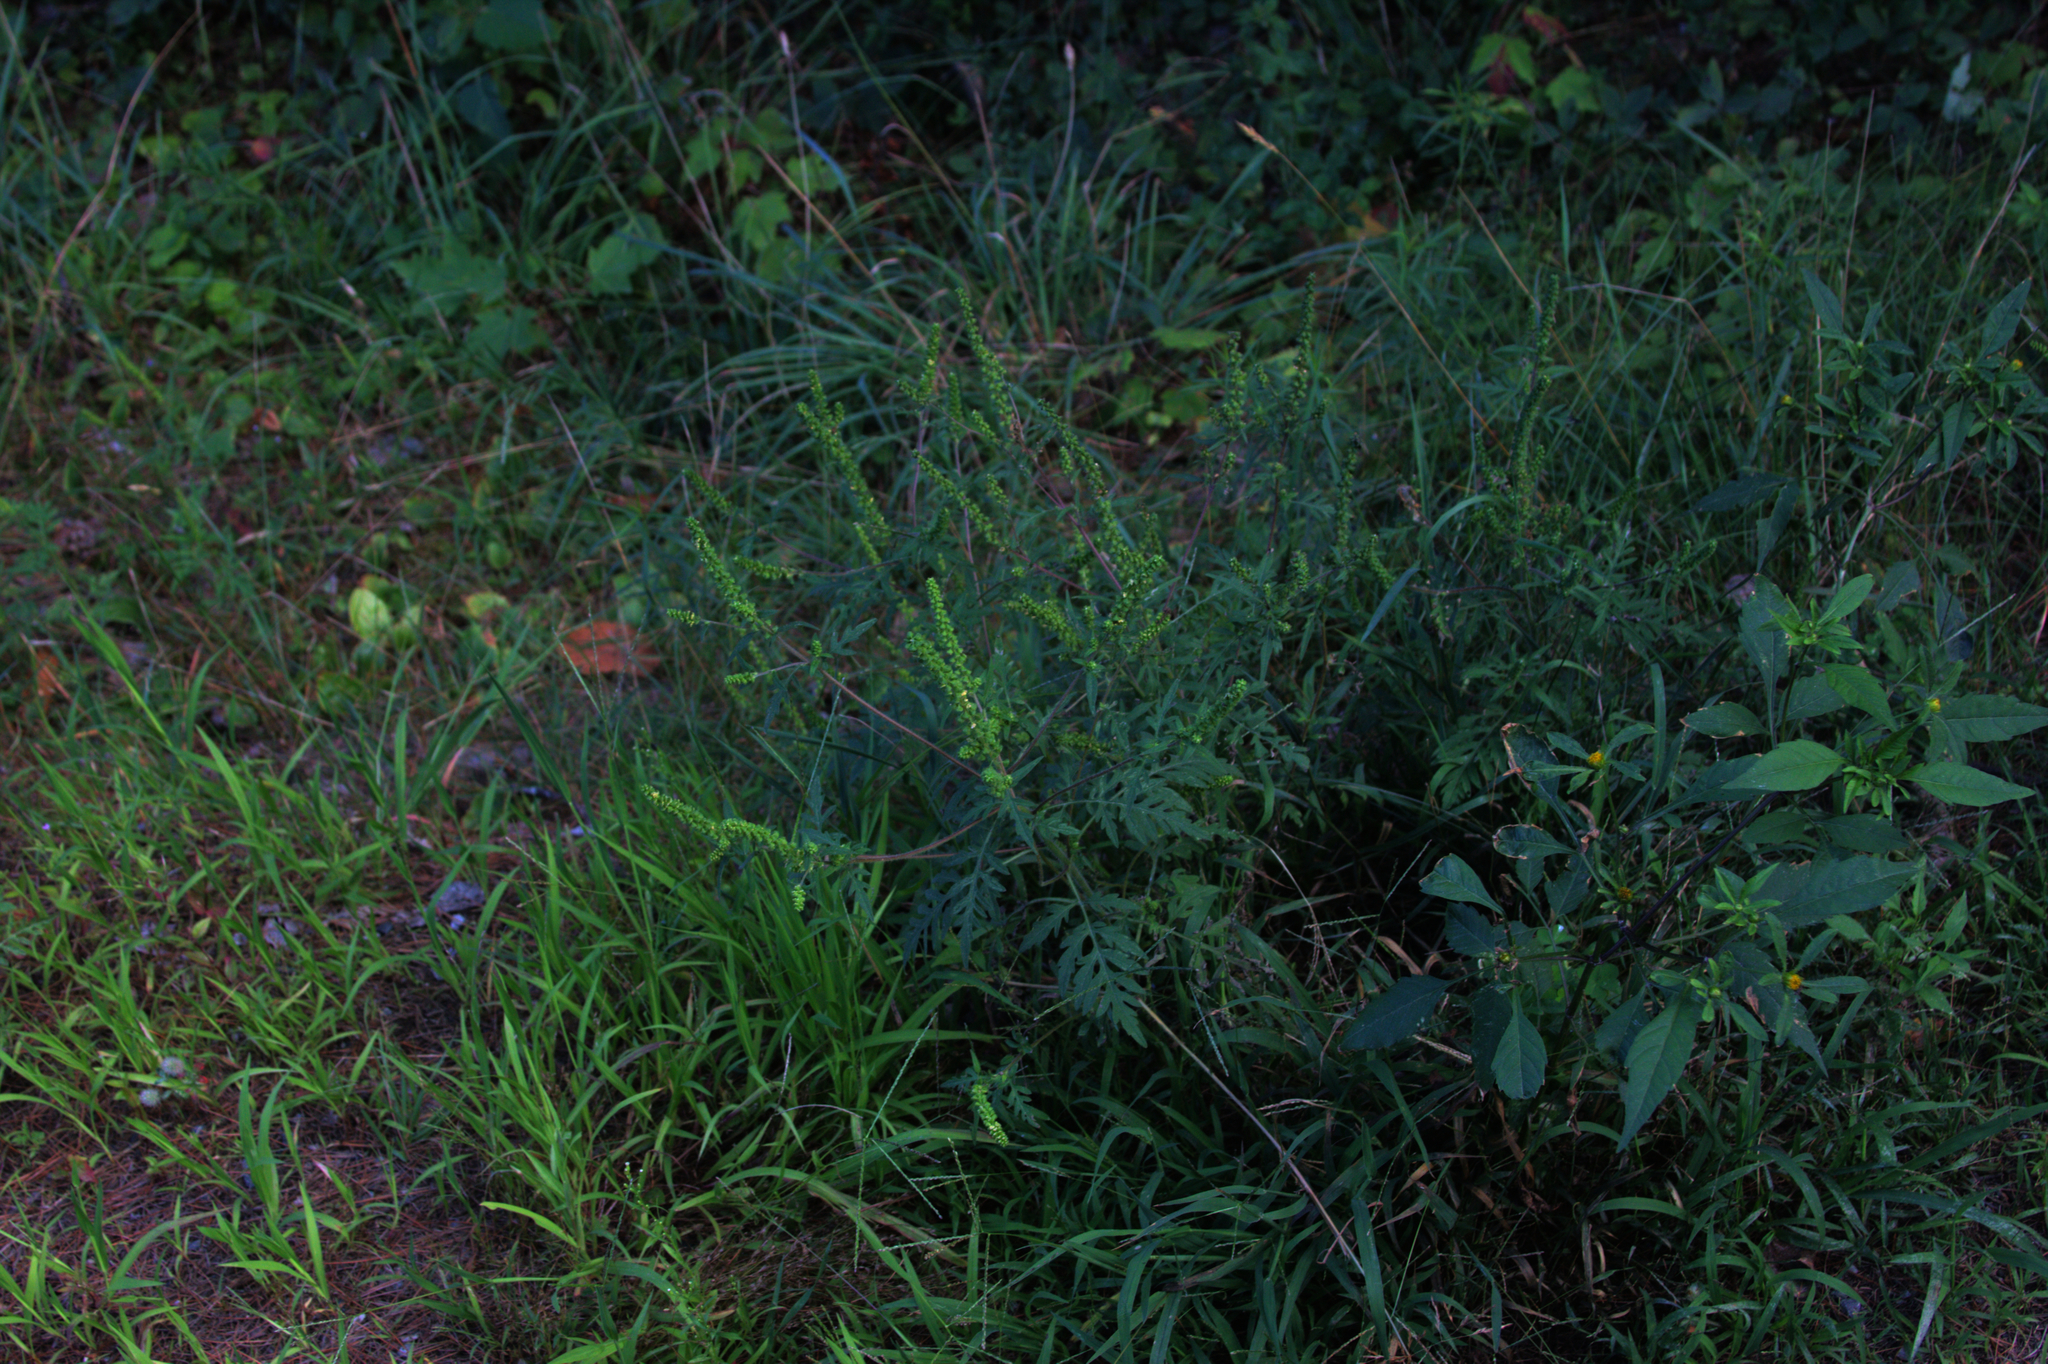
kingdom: Plantae
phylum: Tracheophyta
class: Magnoliopsida
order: Asterales
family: Asteraceae
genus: Ambrosia
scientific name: Ambrosia artemisiifolia
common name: Annual ragweed
